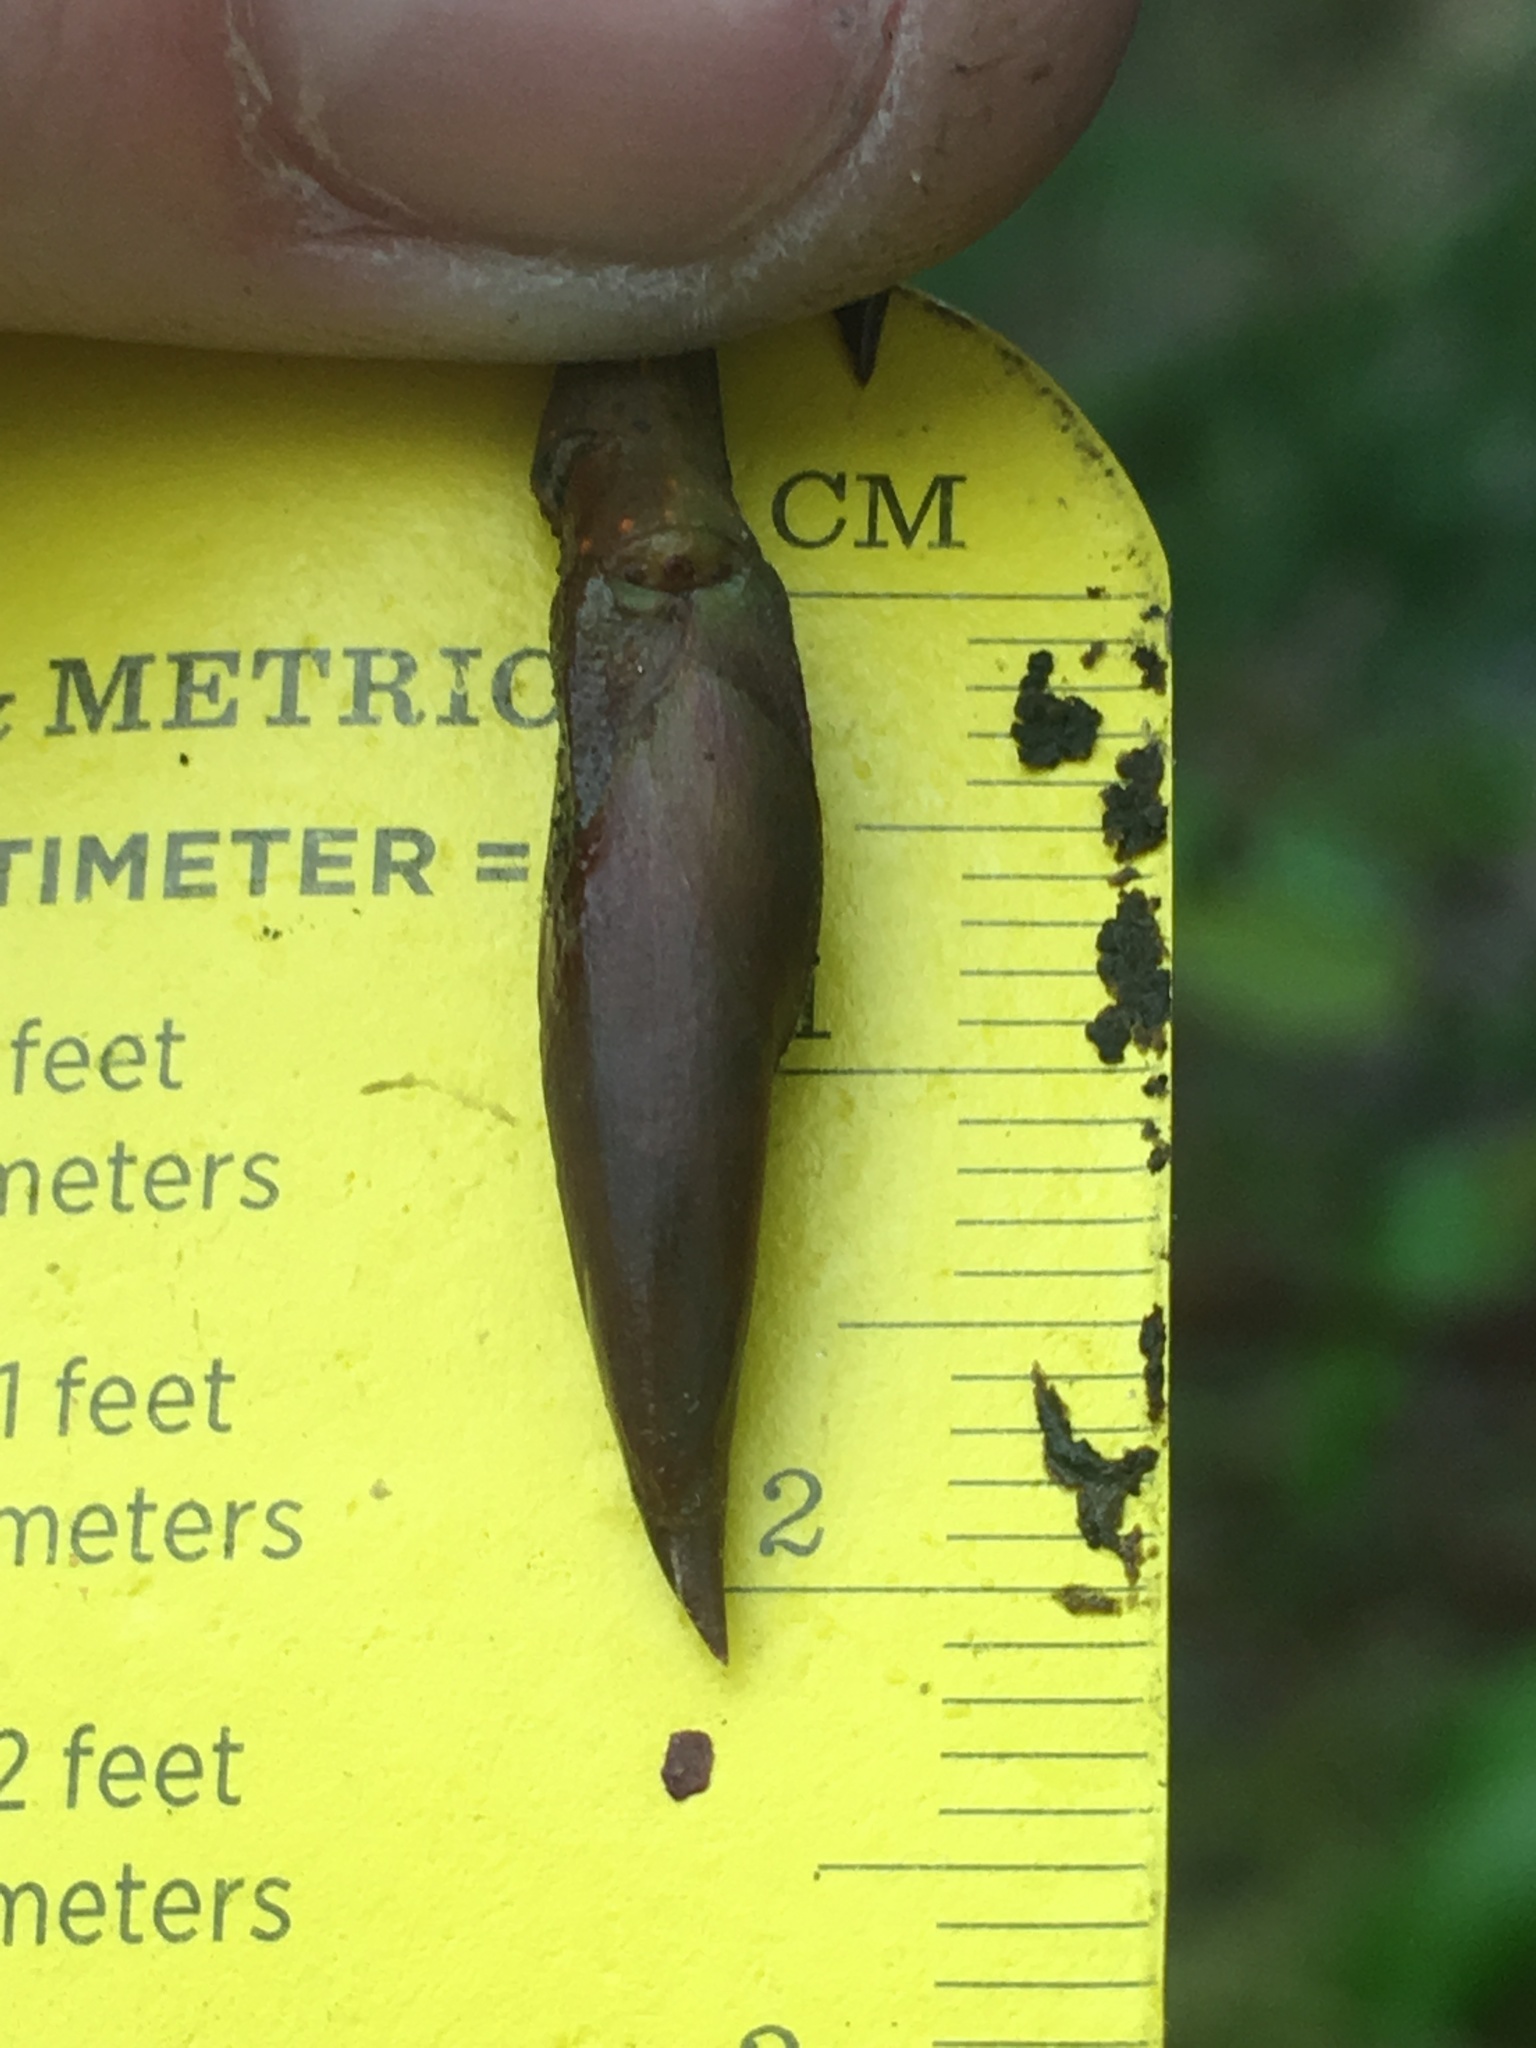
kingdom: Plantae
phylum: Tracheophyta
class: Magnoliopsida
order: Malpighiales
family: Salicaceae
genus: Populus
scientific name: Populus trichocarpa
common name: Black cottonwood
